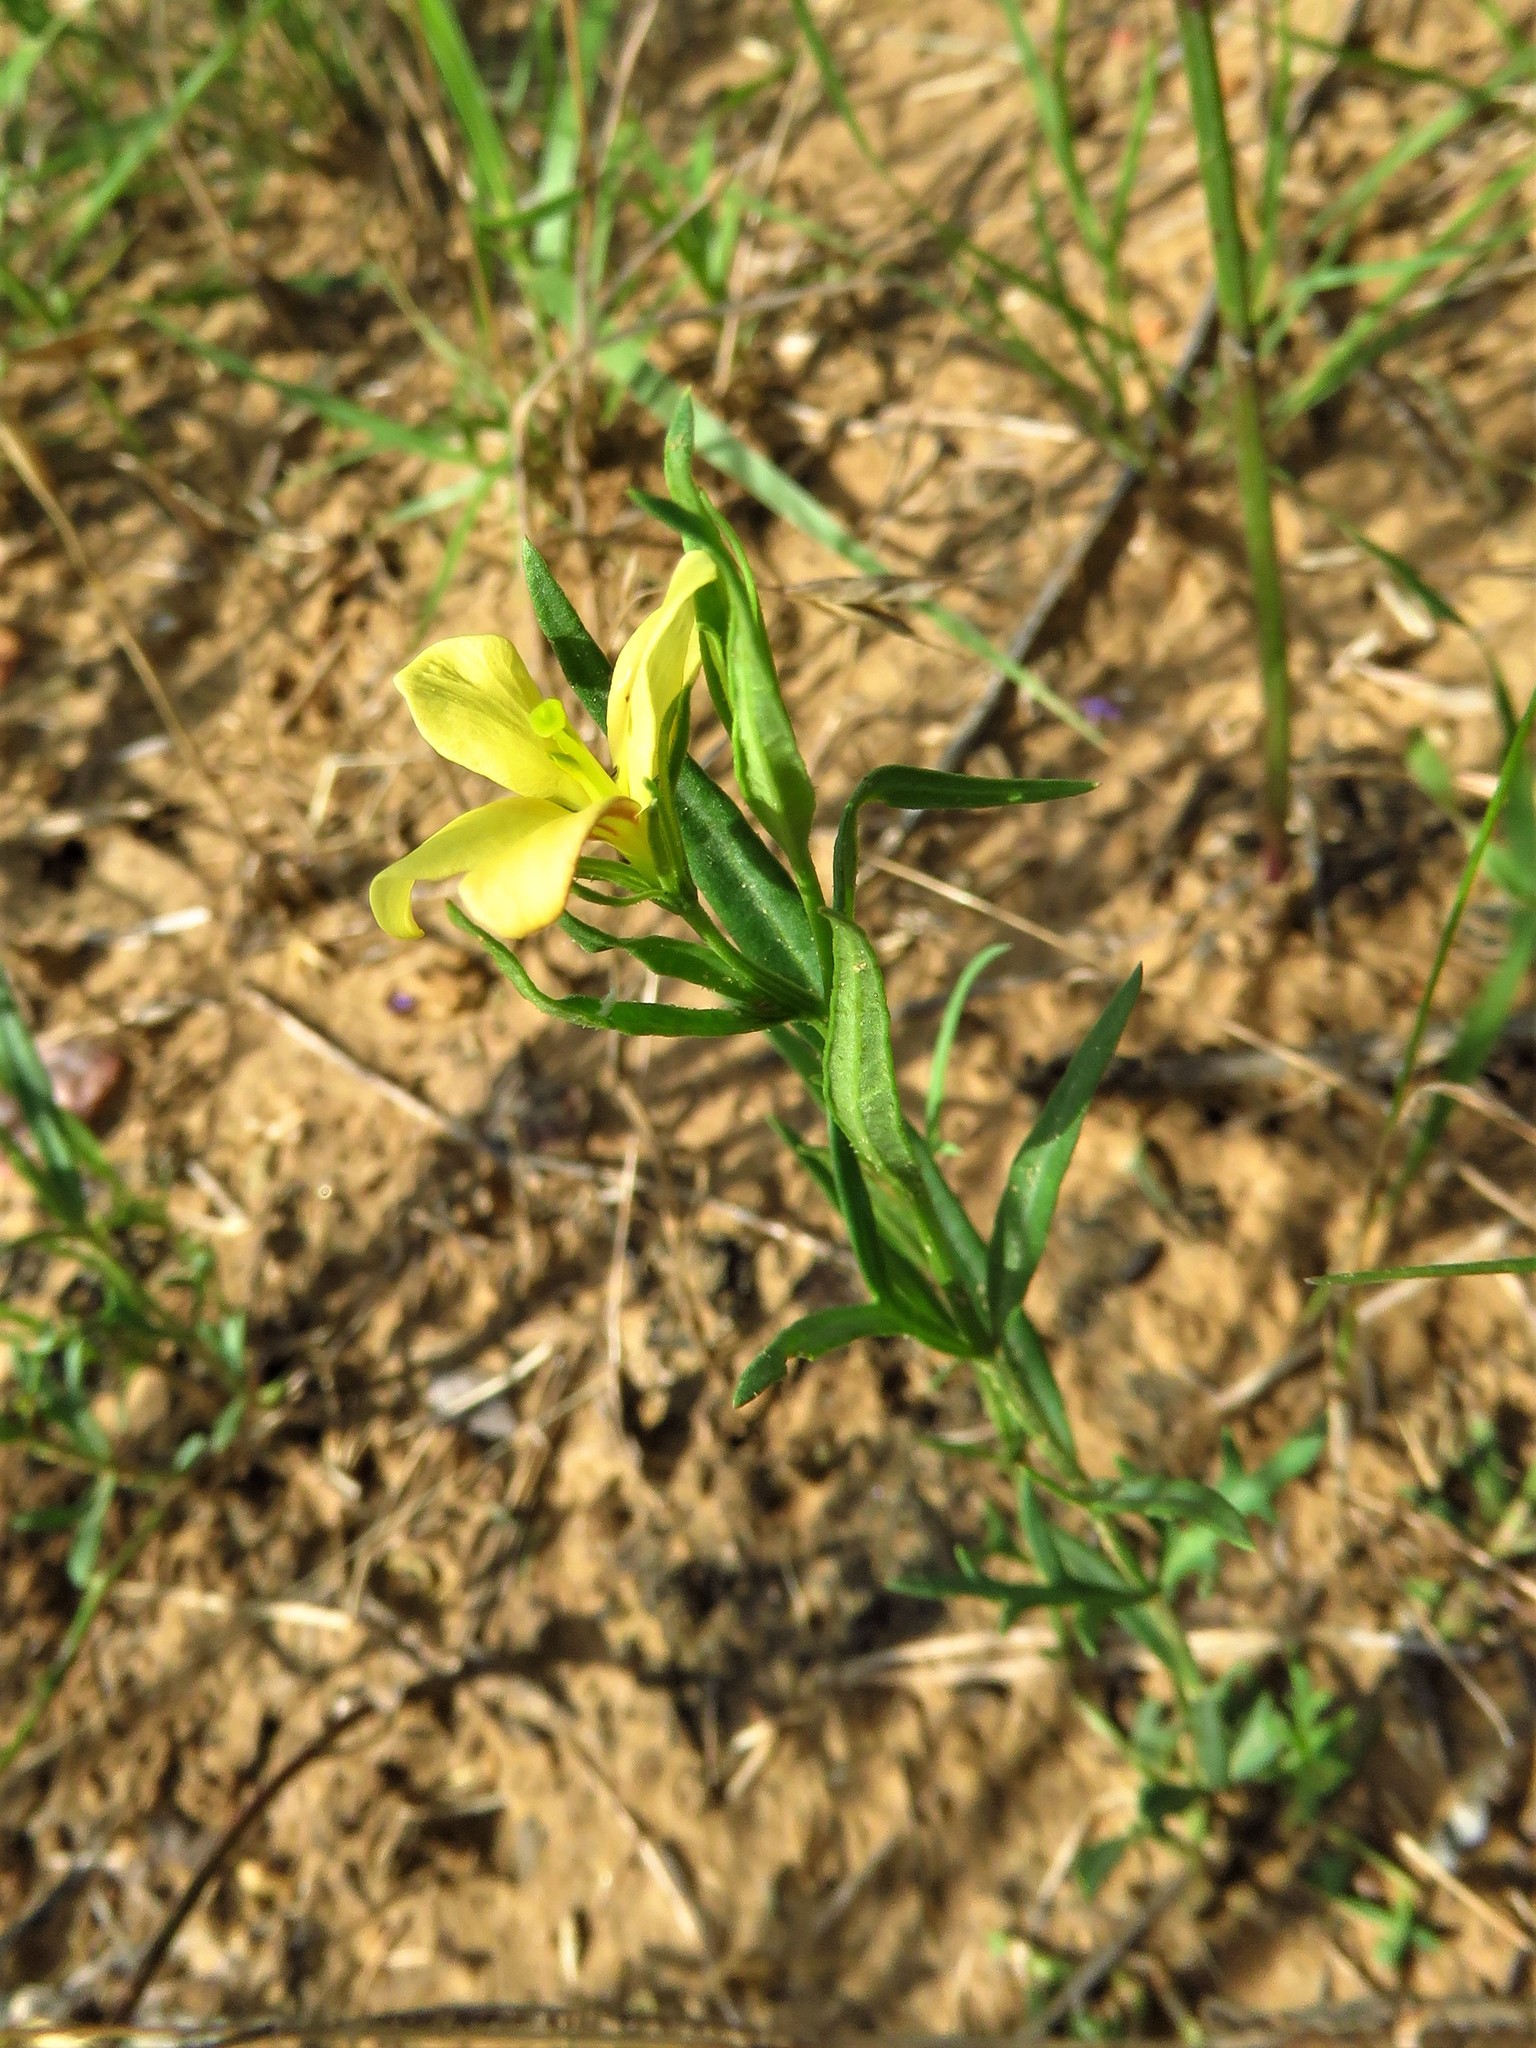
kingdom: Plantae
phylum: Tracheophyta
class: Magnoliopsida
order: Lamiales
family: Oleaceae
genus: Menodora
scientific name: Menodora heterophylla
